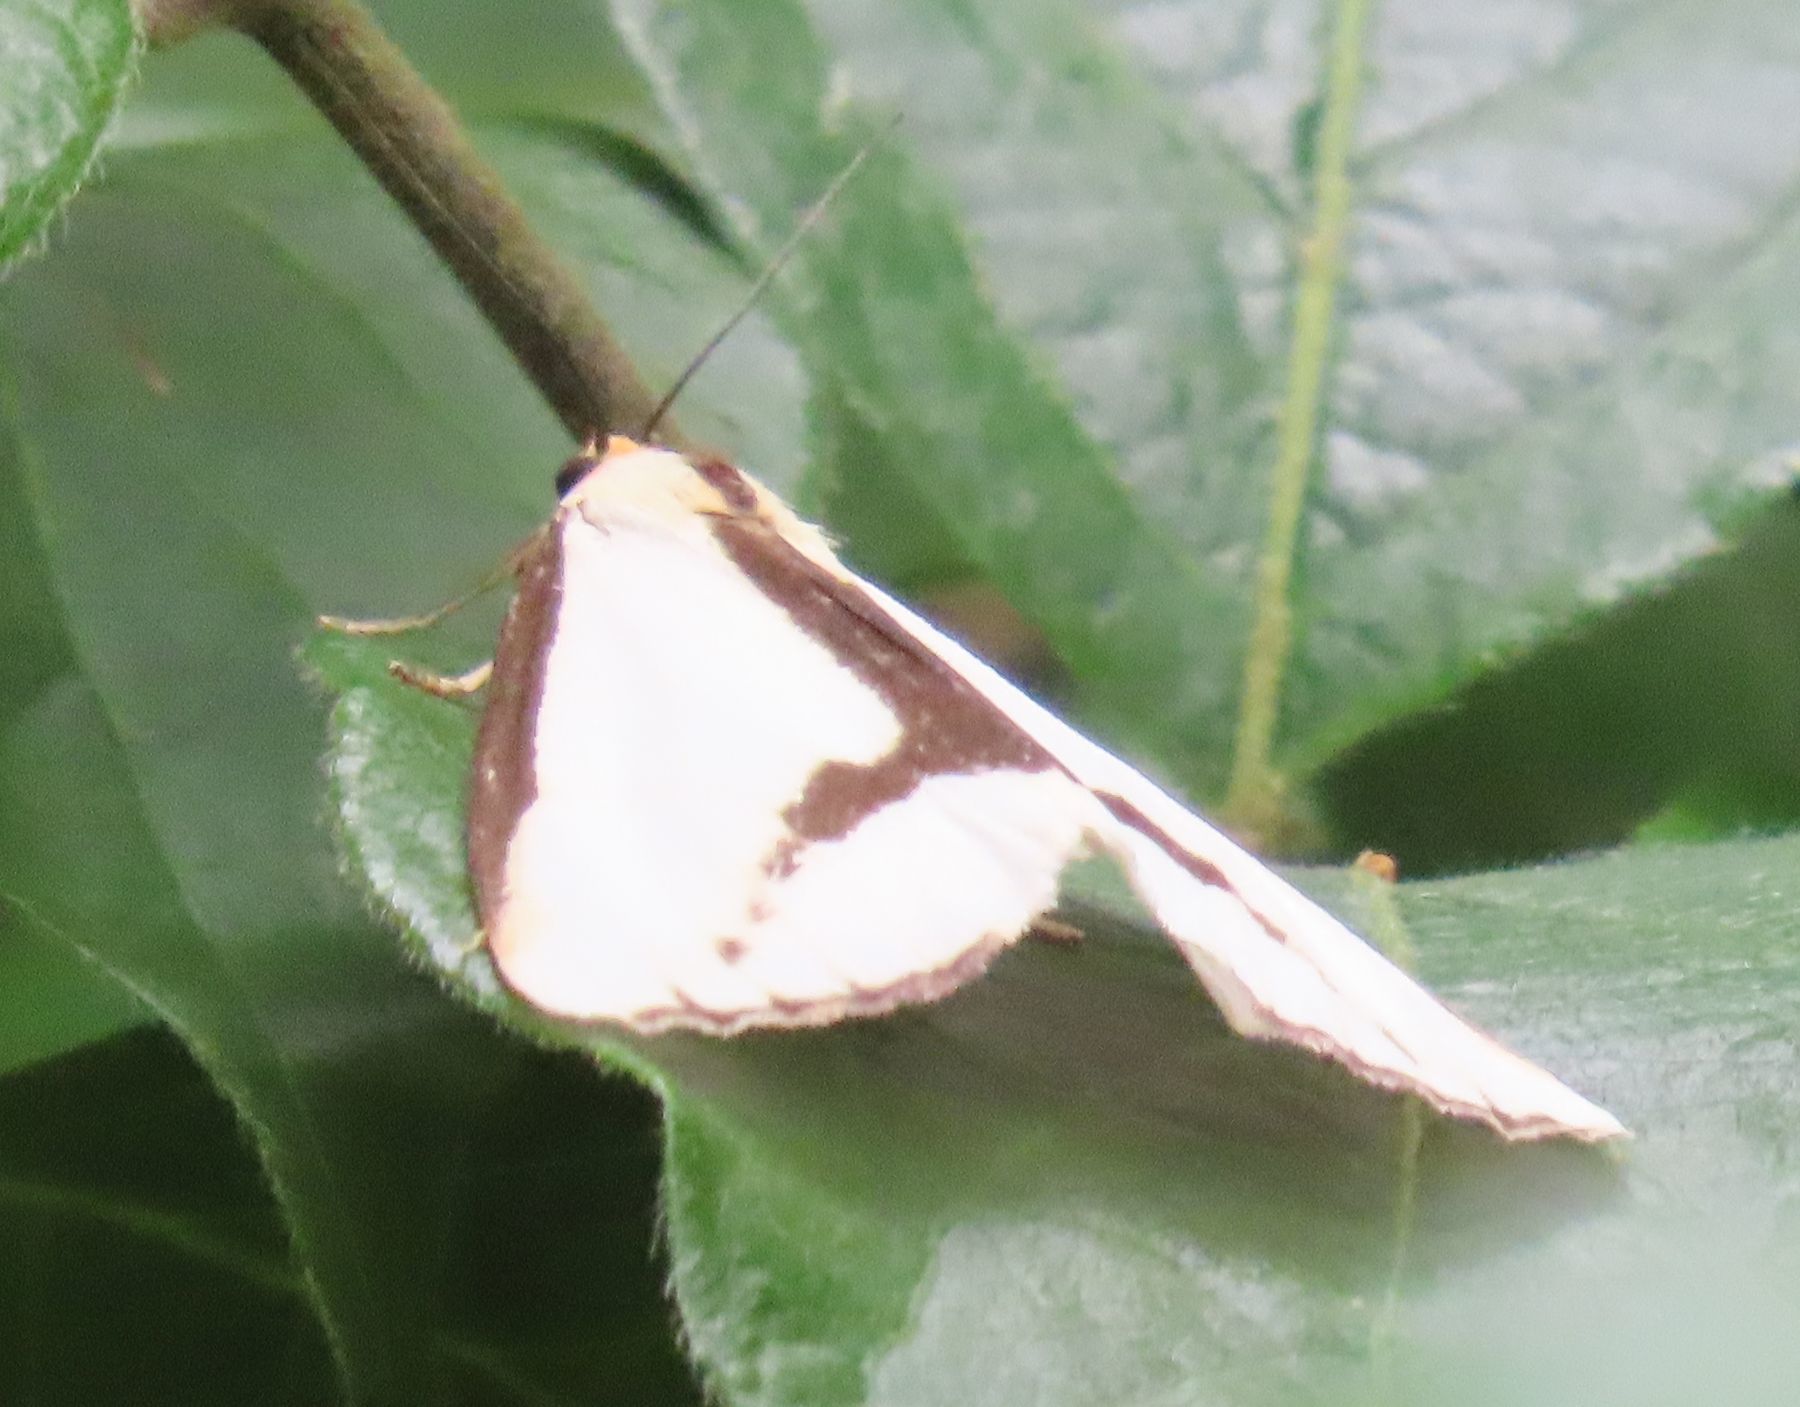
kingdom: Animalia
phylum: Arthropoda
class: Insecta
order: Lepidoptera
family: Erebidae
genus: Haploa
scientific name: Haploa lecontei
